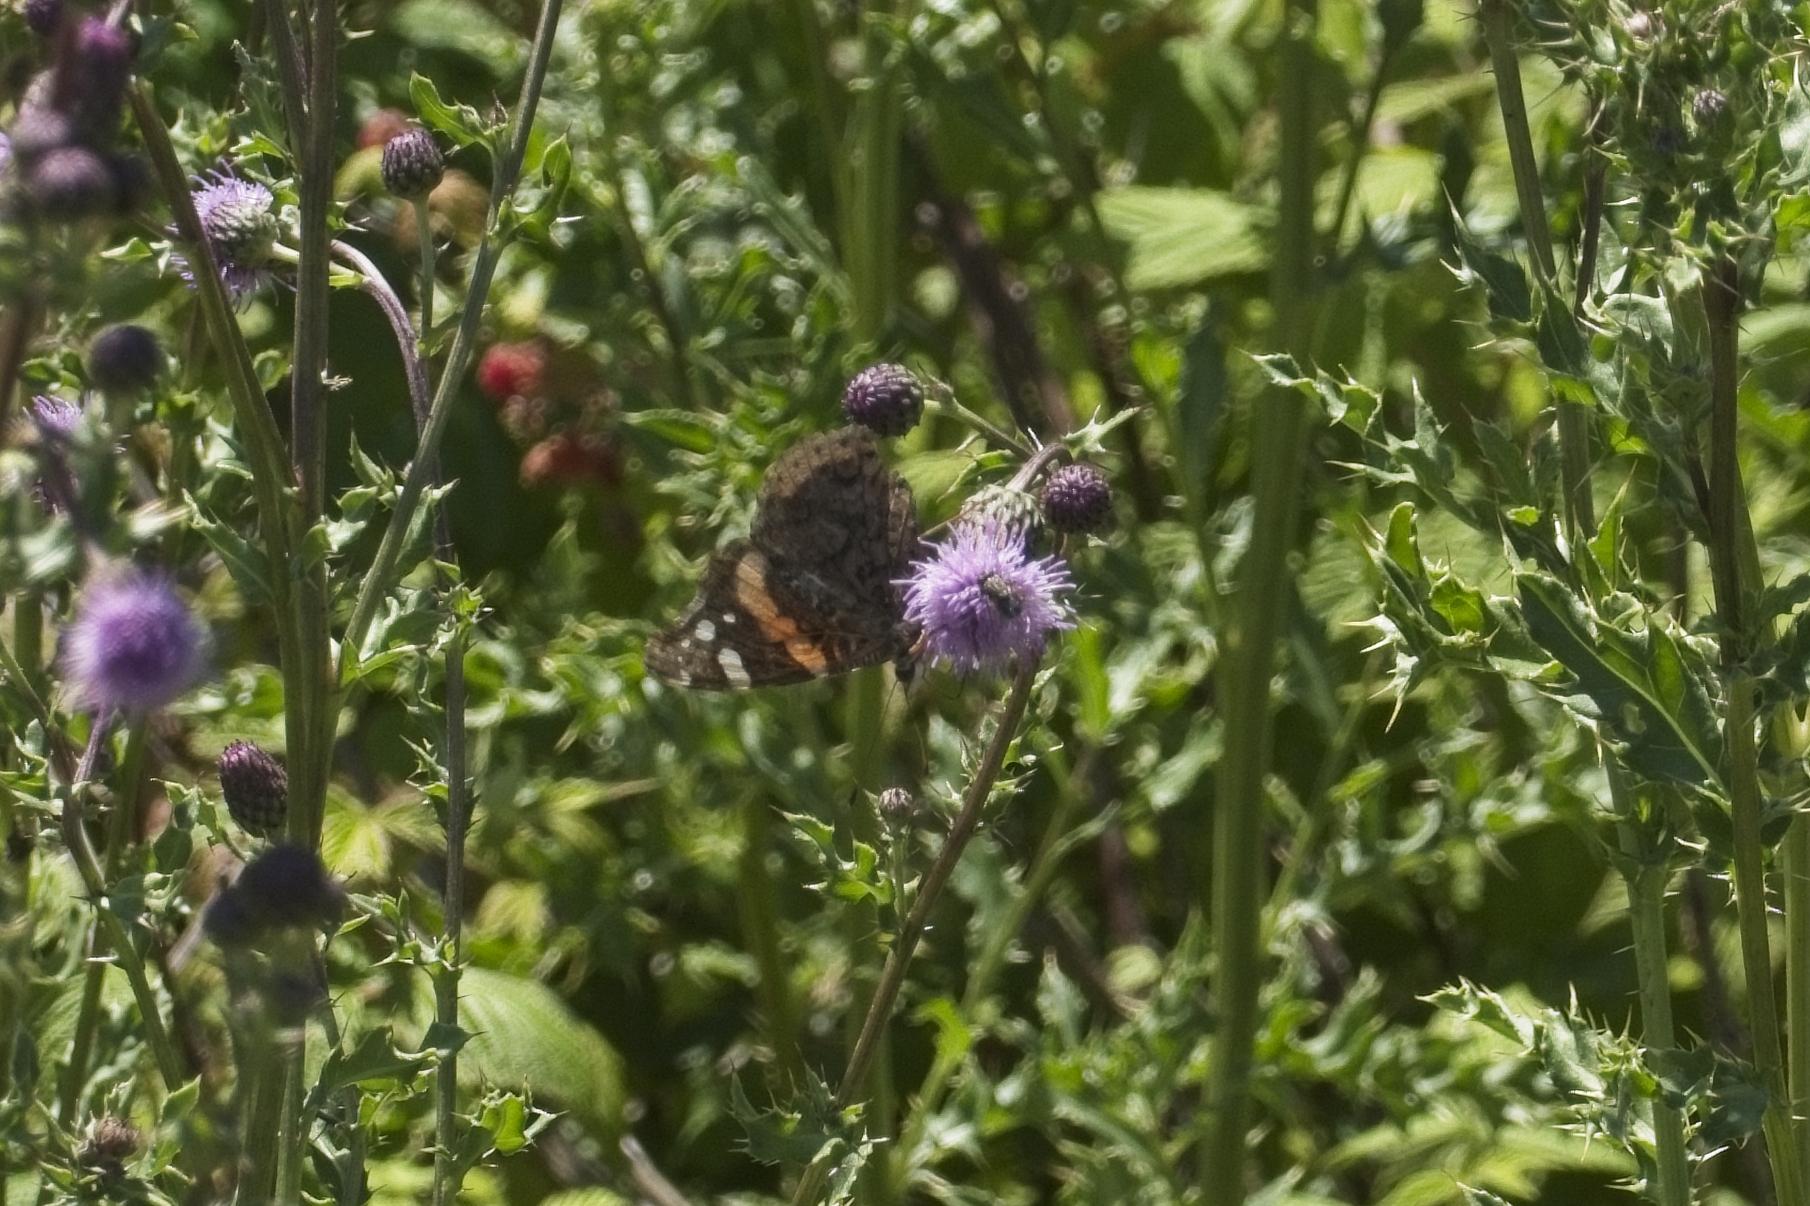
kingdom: Animalia
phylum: Arthropoda
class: Insecta
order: Lepidoptera
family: Nymphalidae
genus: Vanessa
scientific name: Vanessa atalanta
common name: Red admiral
